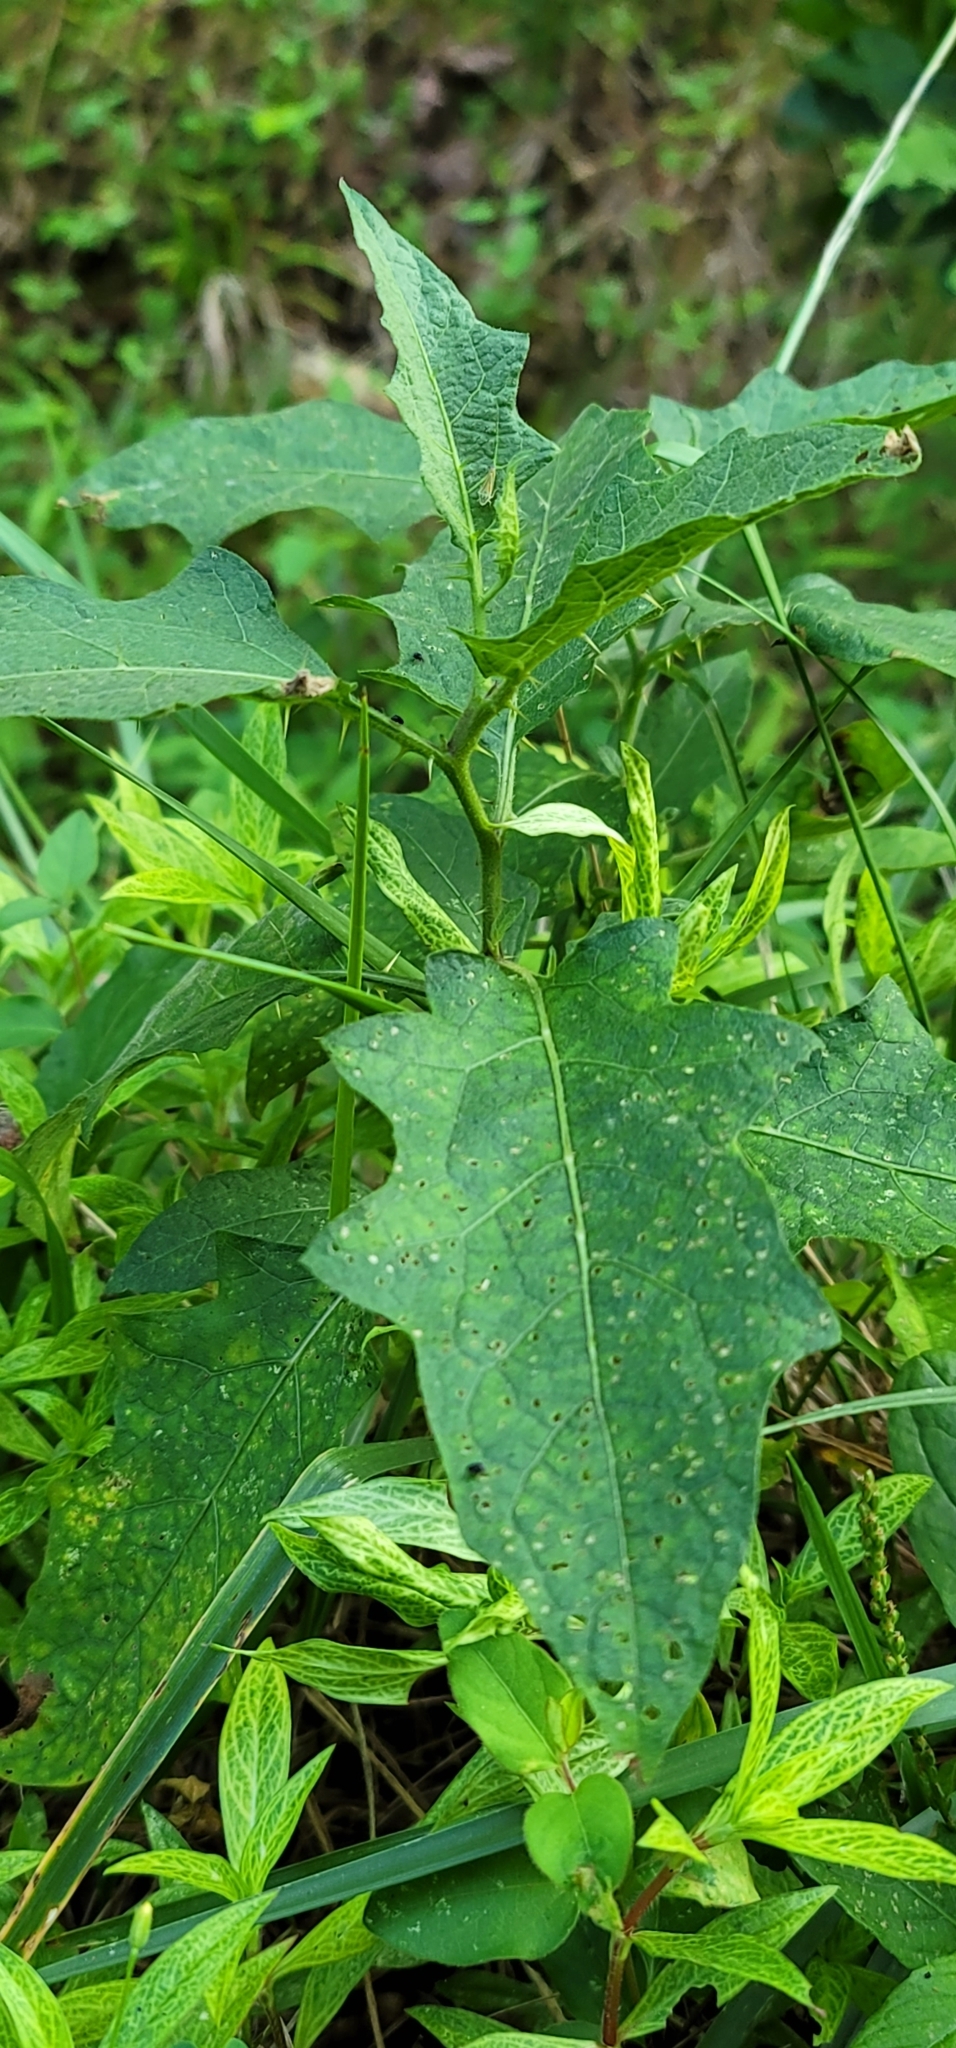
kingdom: Plantae
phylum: Tracheophyta
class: Magnoliopsida
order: Solanales
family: Solanaceae
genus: Solanum
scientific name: Solanum carolinense
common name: Horse-nettle
